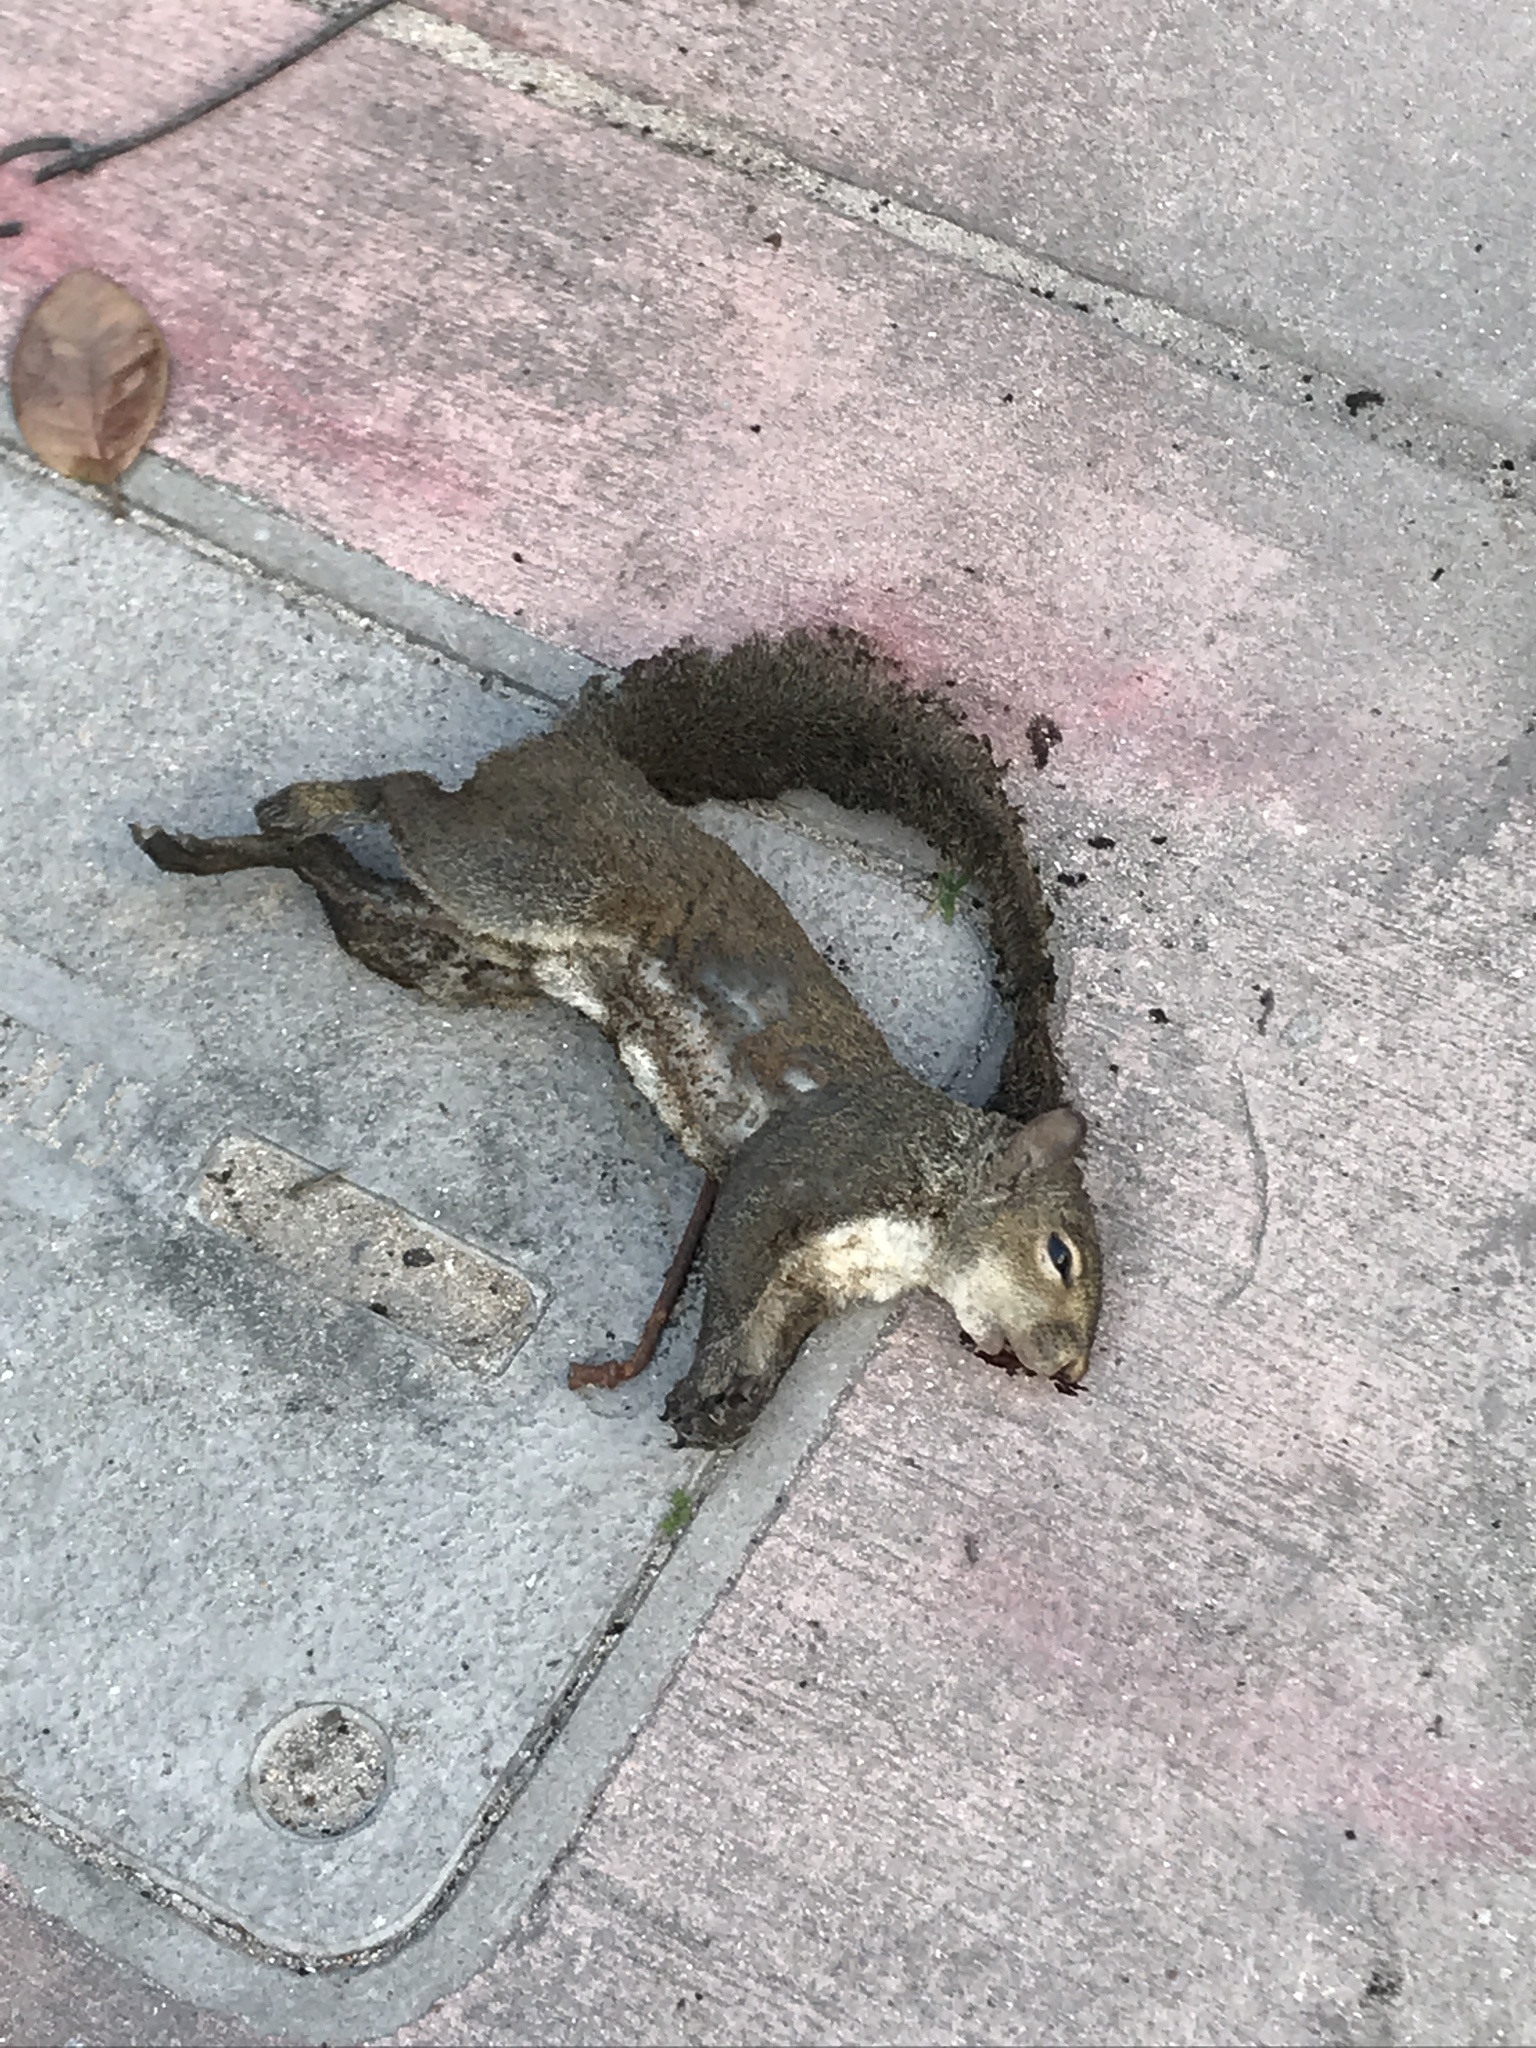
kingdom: Animalia
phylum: Chordata
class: Mammalia
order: Rodentia
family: Sciuridae
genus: Sciurus
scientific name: Sciurus carolinensis
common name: Eastern gray squirrel
